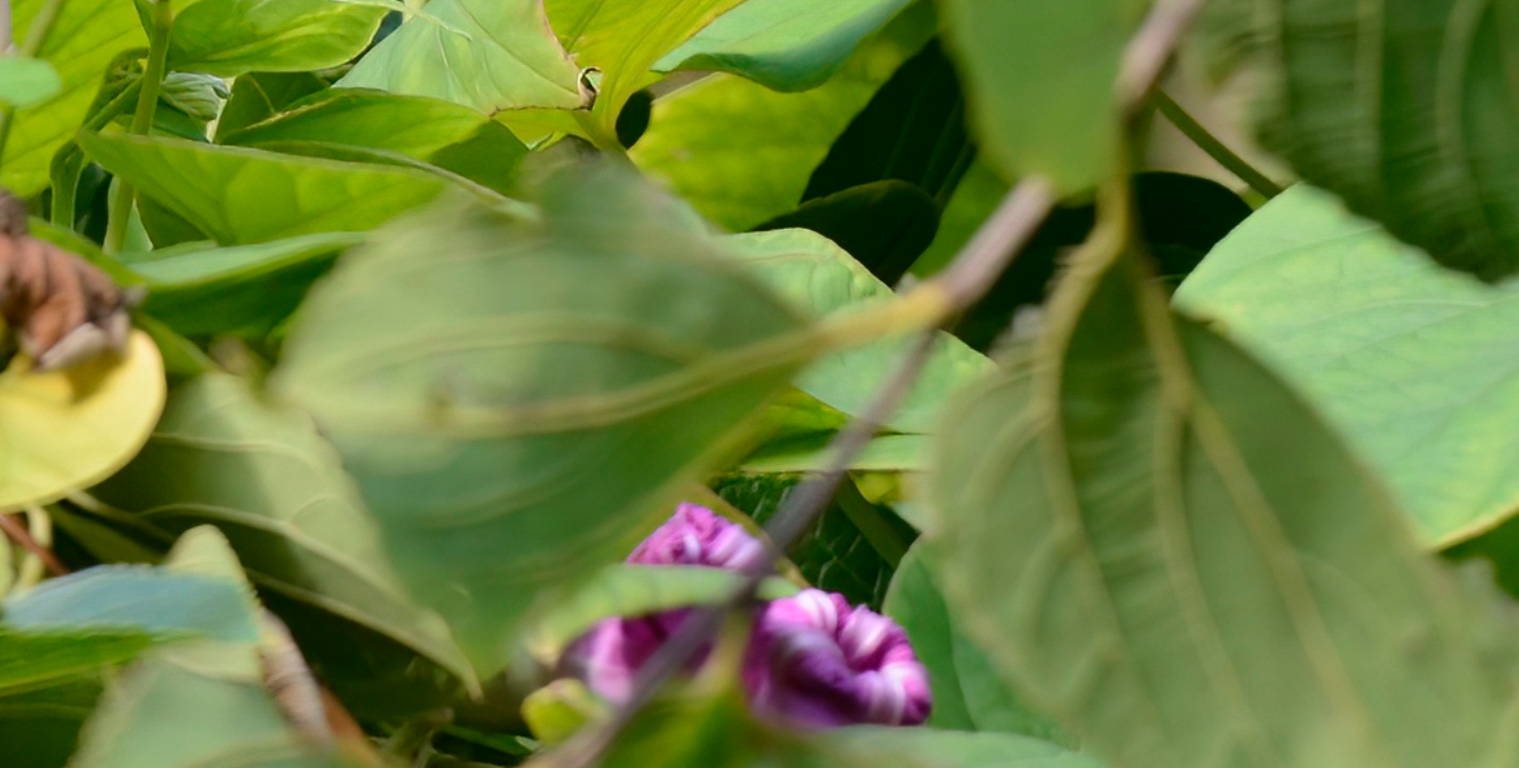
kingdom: Plantae
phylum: Tracheophyta
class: Magnoliopsida
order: Solanales
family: Convolvulaceae
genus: Ipomoea
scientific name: Ipomoea indica
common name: Blue dawnflower
